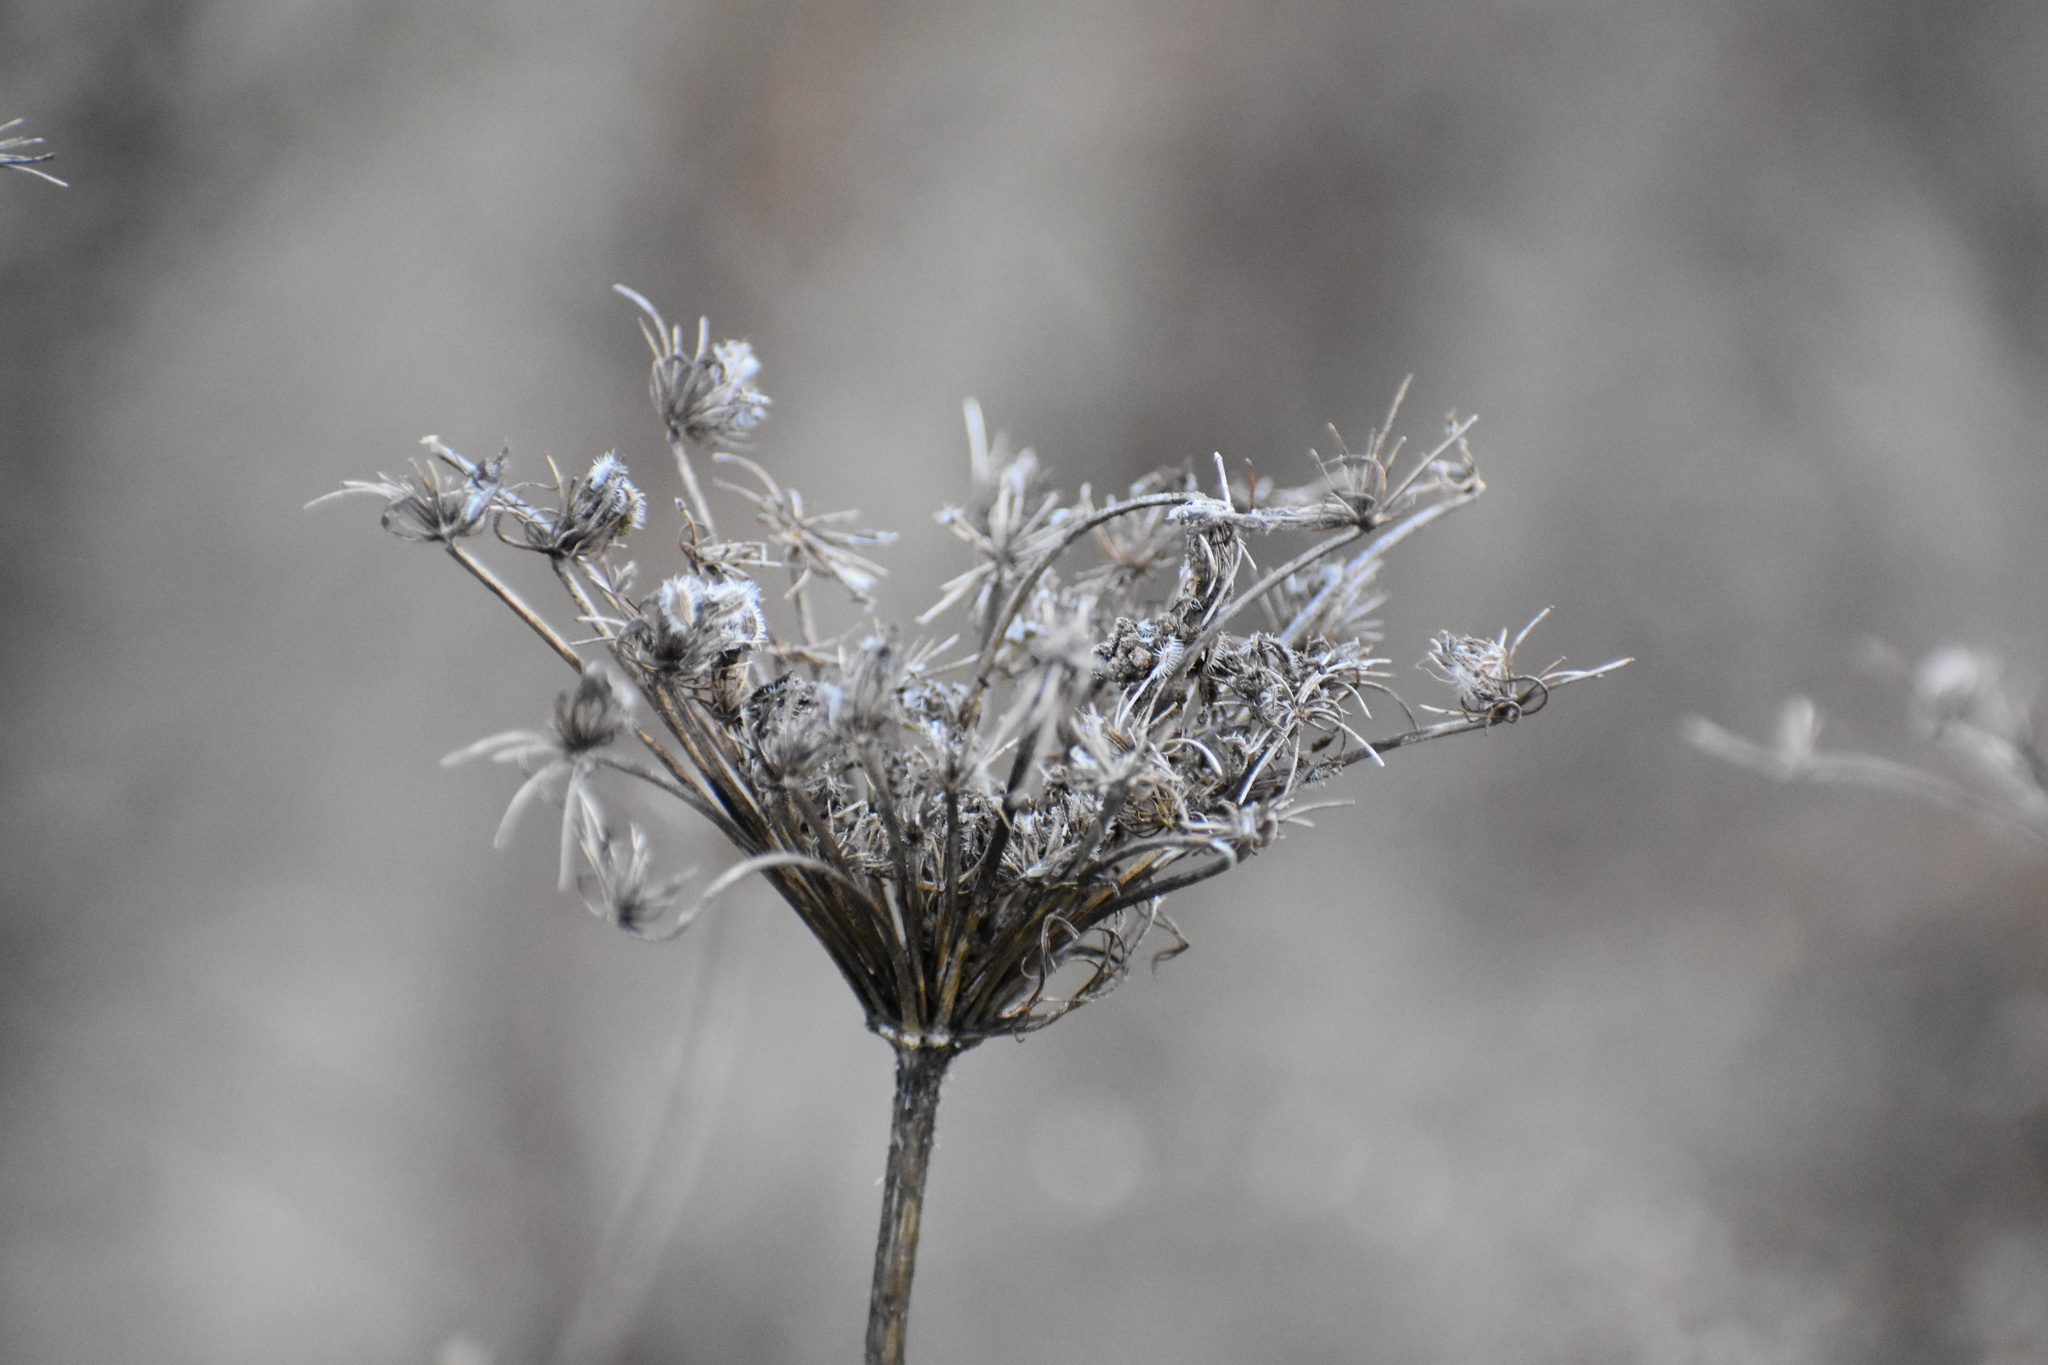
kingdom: Plantae
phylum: Tracheophyta
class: Magnoliopsida
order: Apiales
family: Apiaceae
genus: Daucus
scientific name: Daucus carota
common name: Wild carrot
